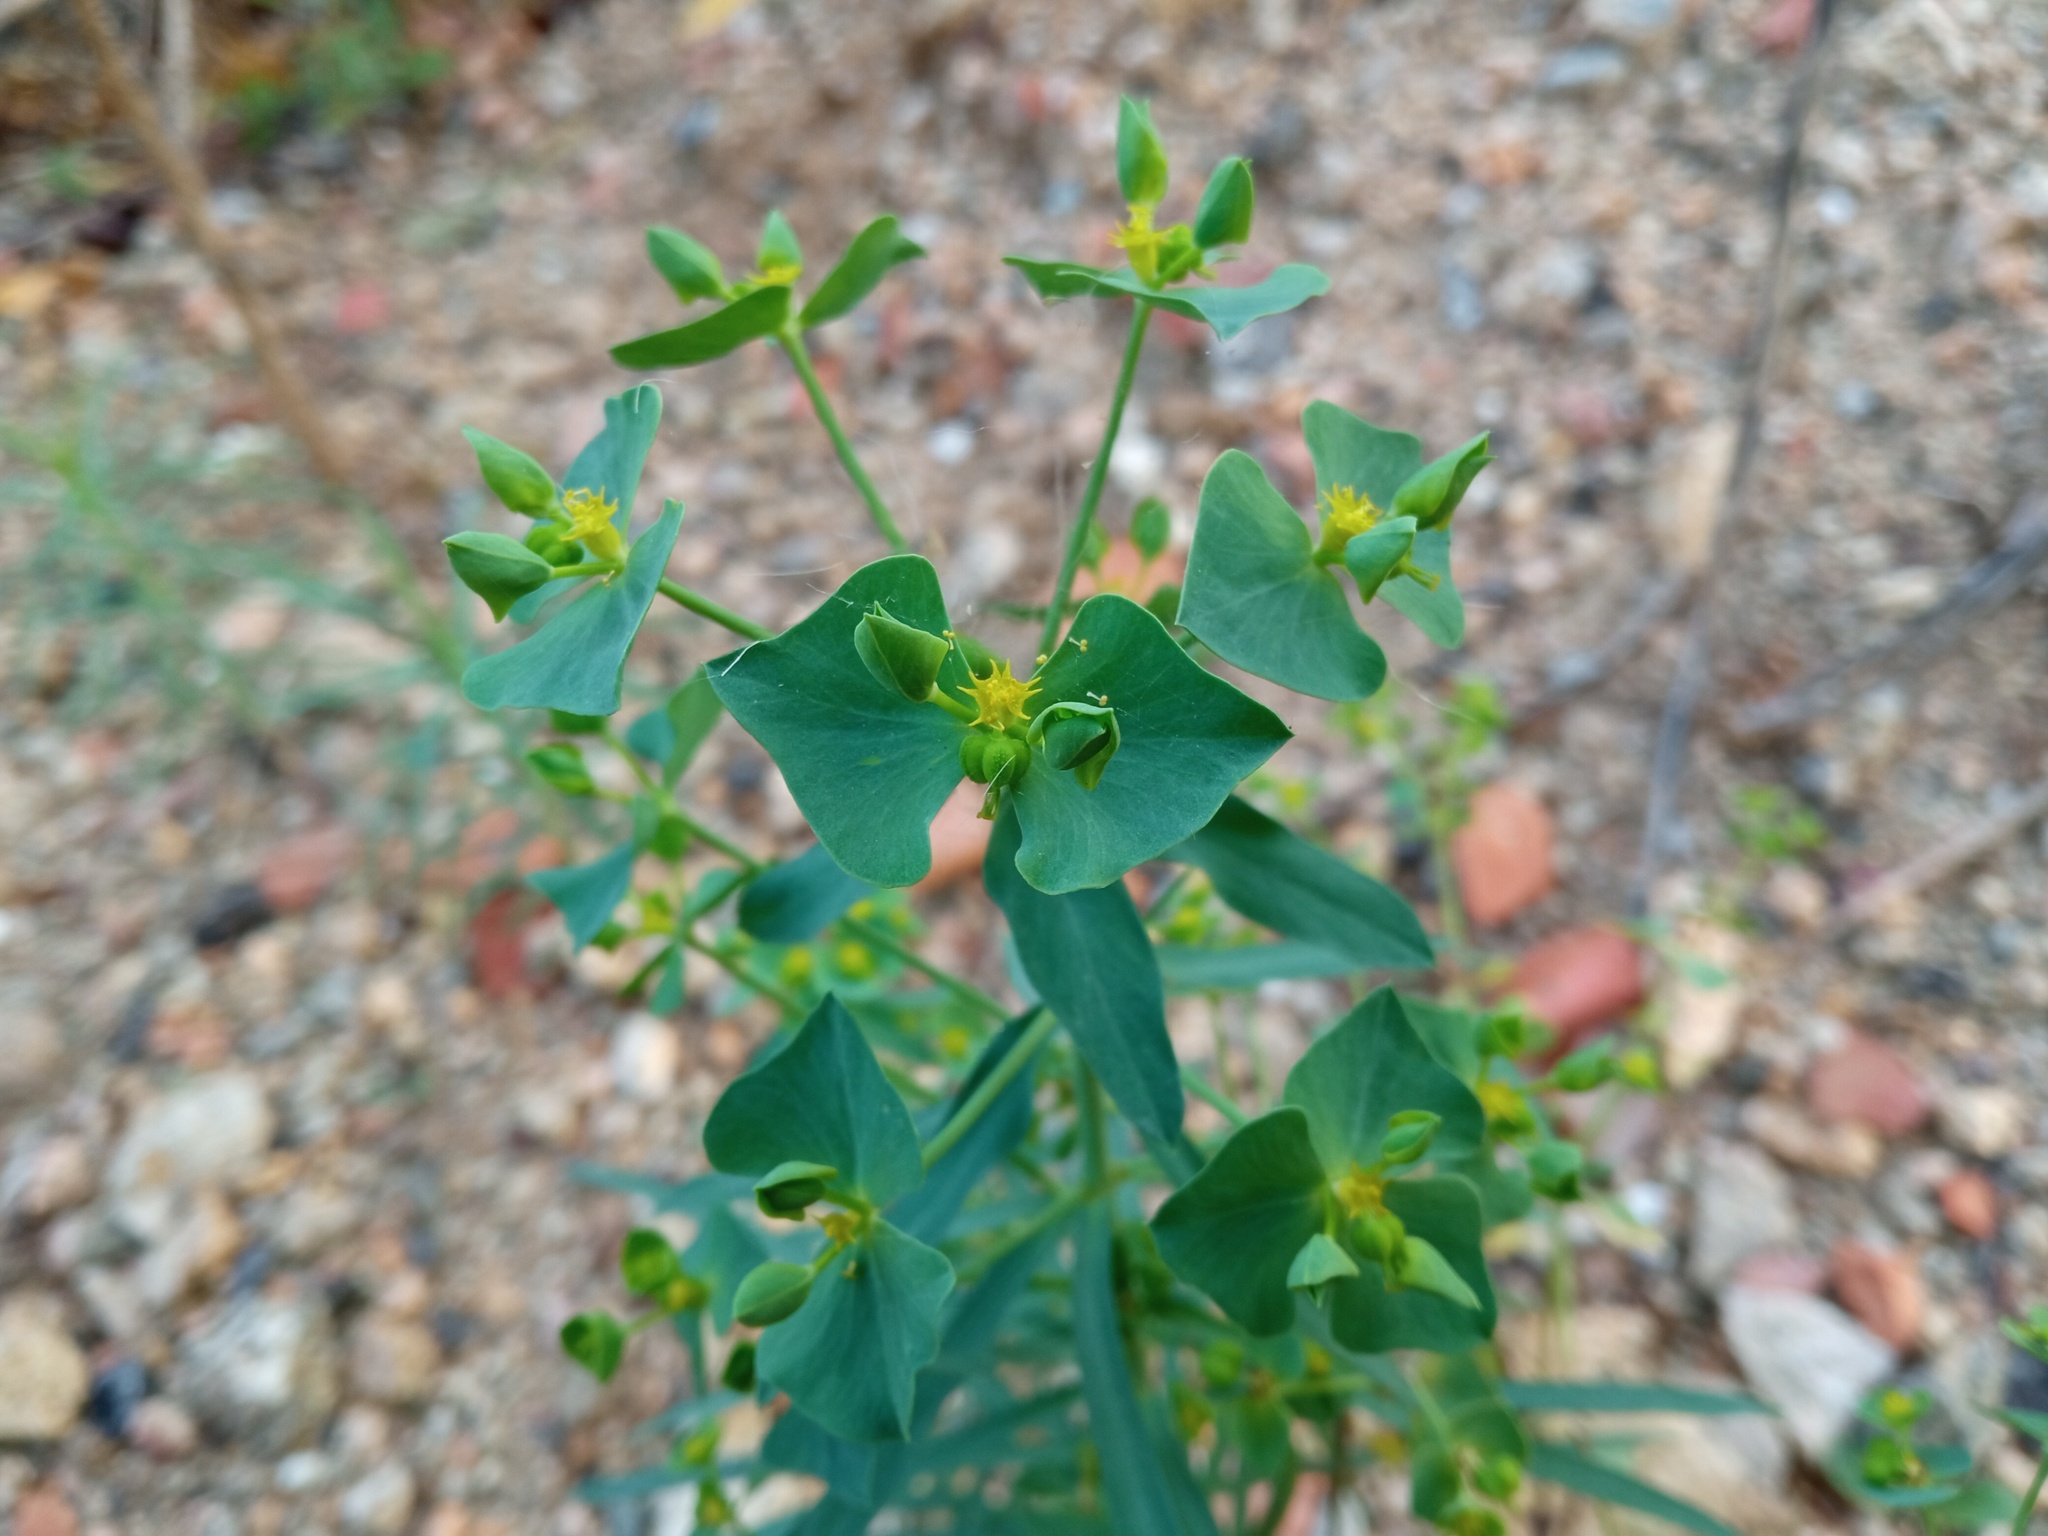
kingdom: Plantae
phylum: Tracheophyta
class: Magnoliopsida
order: Malpighiales
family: Euphorbiaceae
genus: Euphorbia
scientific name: Euphorbia segetalis
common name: Corn spurge
